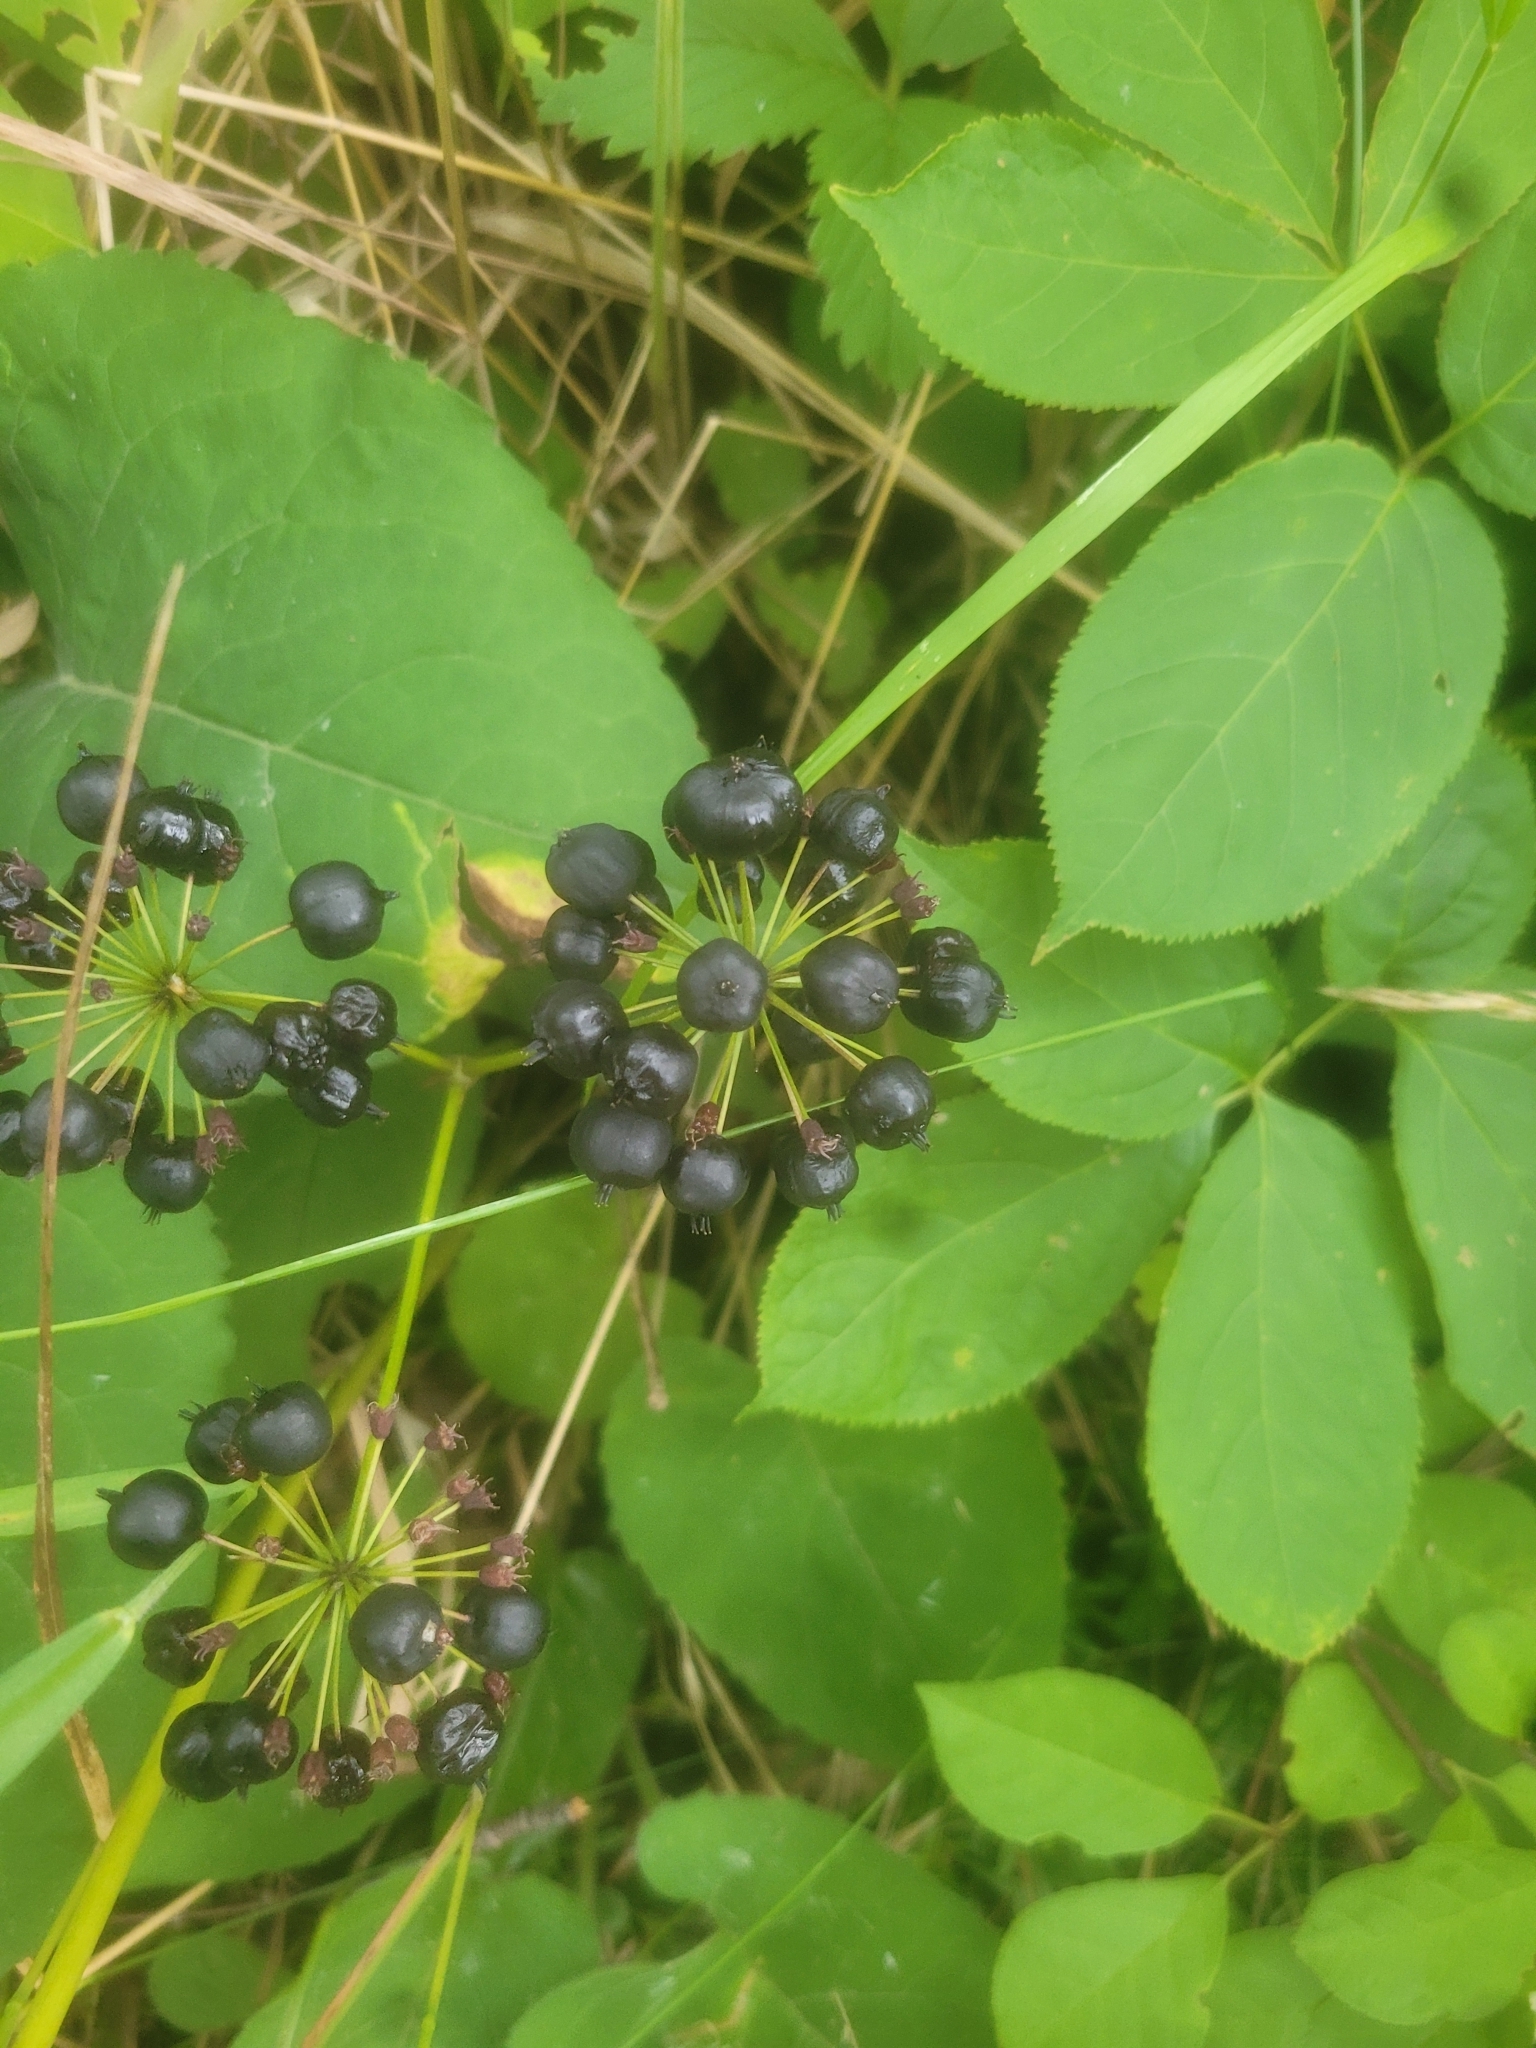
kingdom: Plantae
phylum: Tracheophyta
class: Magnoliopsida
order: Apiales
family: Araliaceae
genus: Aralia
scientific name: Aralia nudicaulis
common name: Wild sarsaparilla
